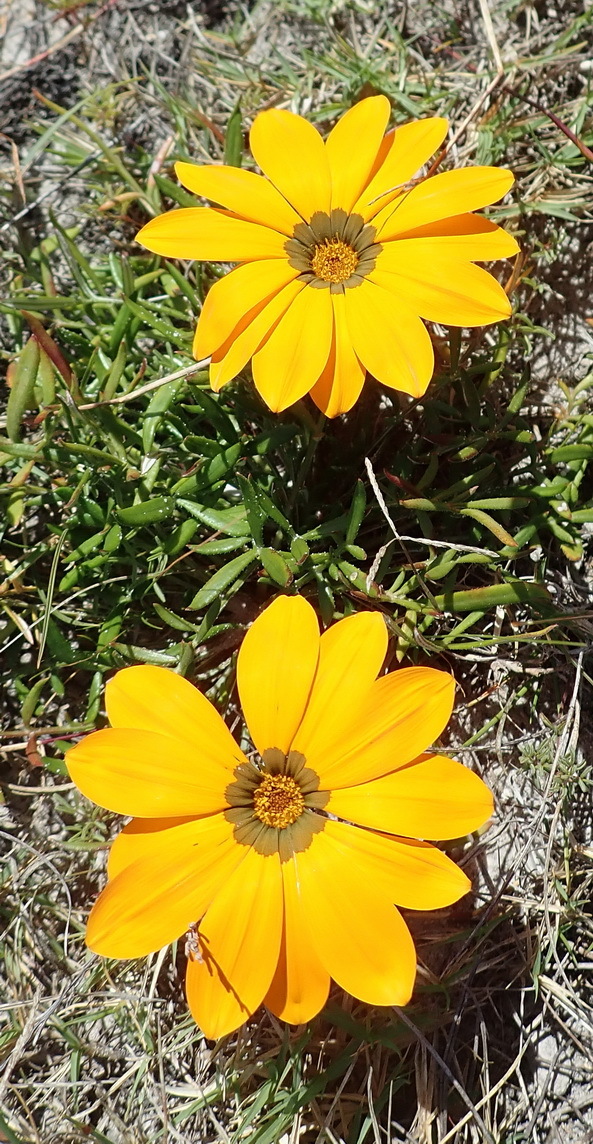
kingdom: Plantae
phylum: Tracheophyta
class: Magnoliopsida
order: Asterales
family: Asteraceae
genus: Gazania
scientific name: Gazania pectinata
